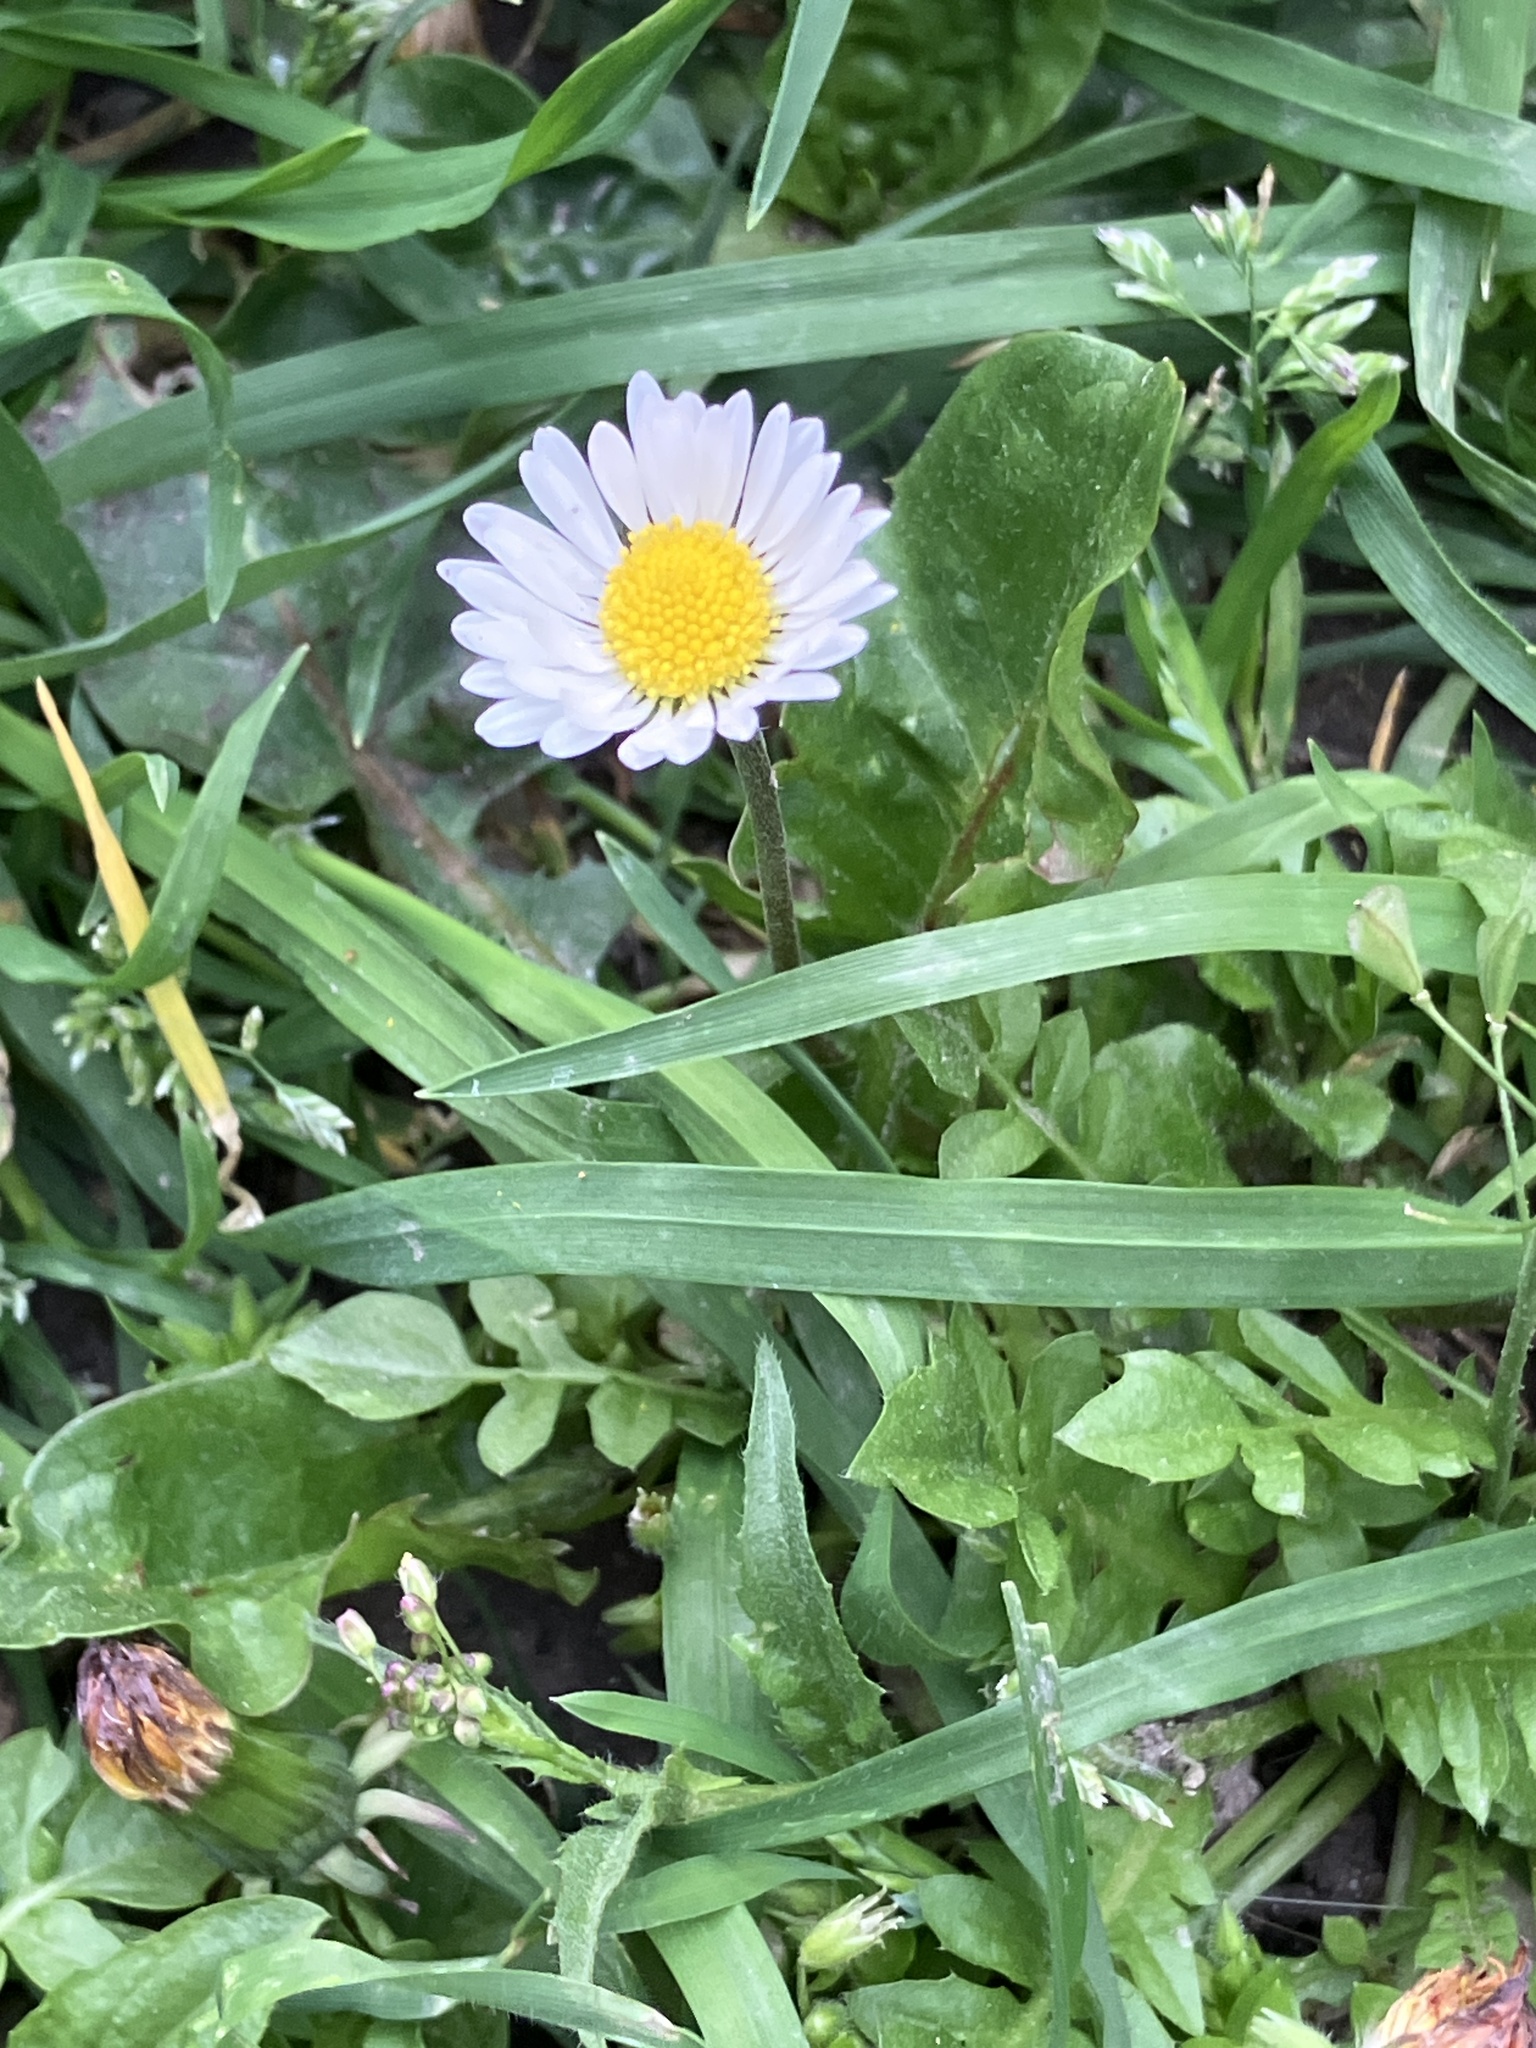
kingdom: Plantae
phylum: Tracheophyta
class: Magnoliopsida
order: Asterales
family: Asteraceae
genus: Bellis
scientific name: Bellis perennis
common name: Lawndaisy
